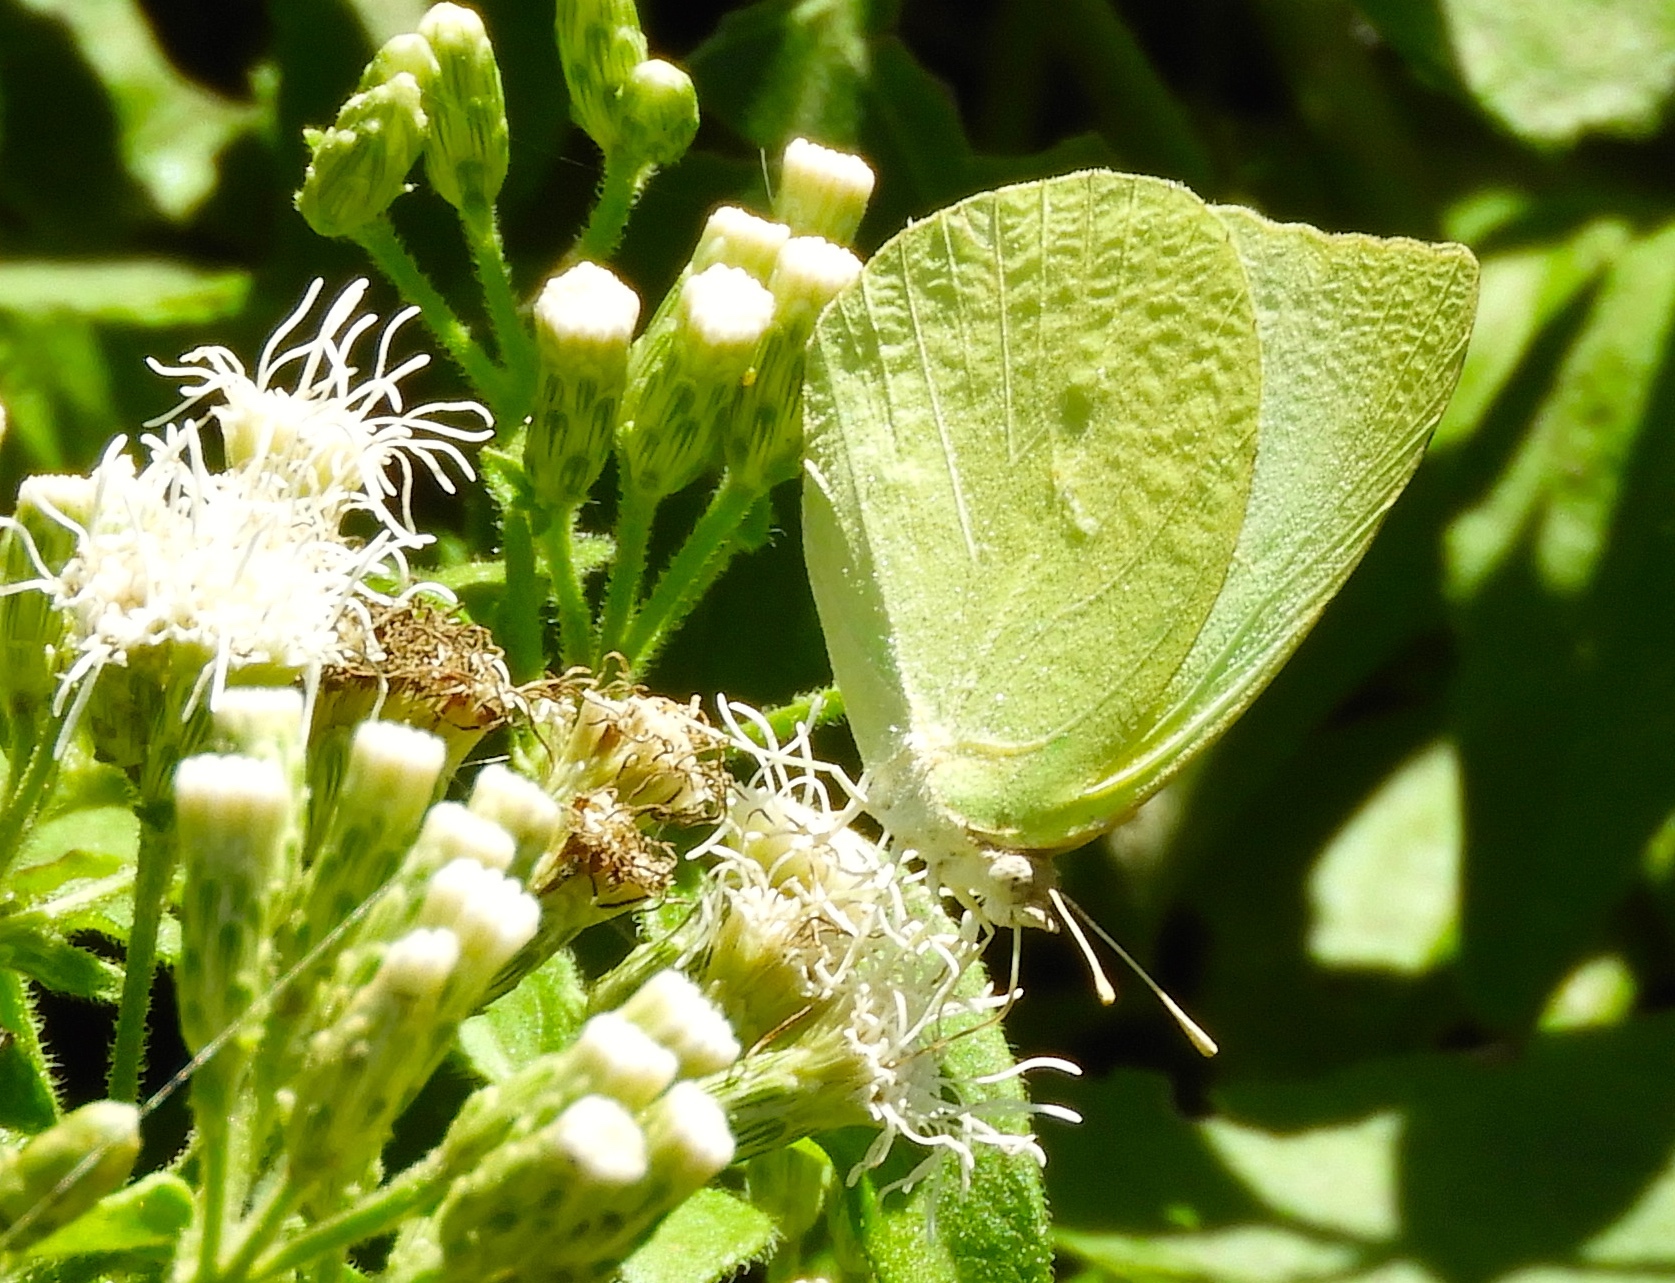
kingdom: Animalia
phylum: Arthropoda
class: Insecta
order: Lepidoptera
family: Pieridae
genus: Kricogonia
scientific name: Kricogonia lyside
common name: Guayacan sulphur,
